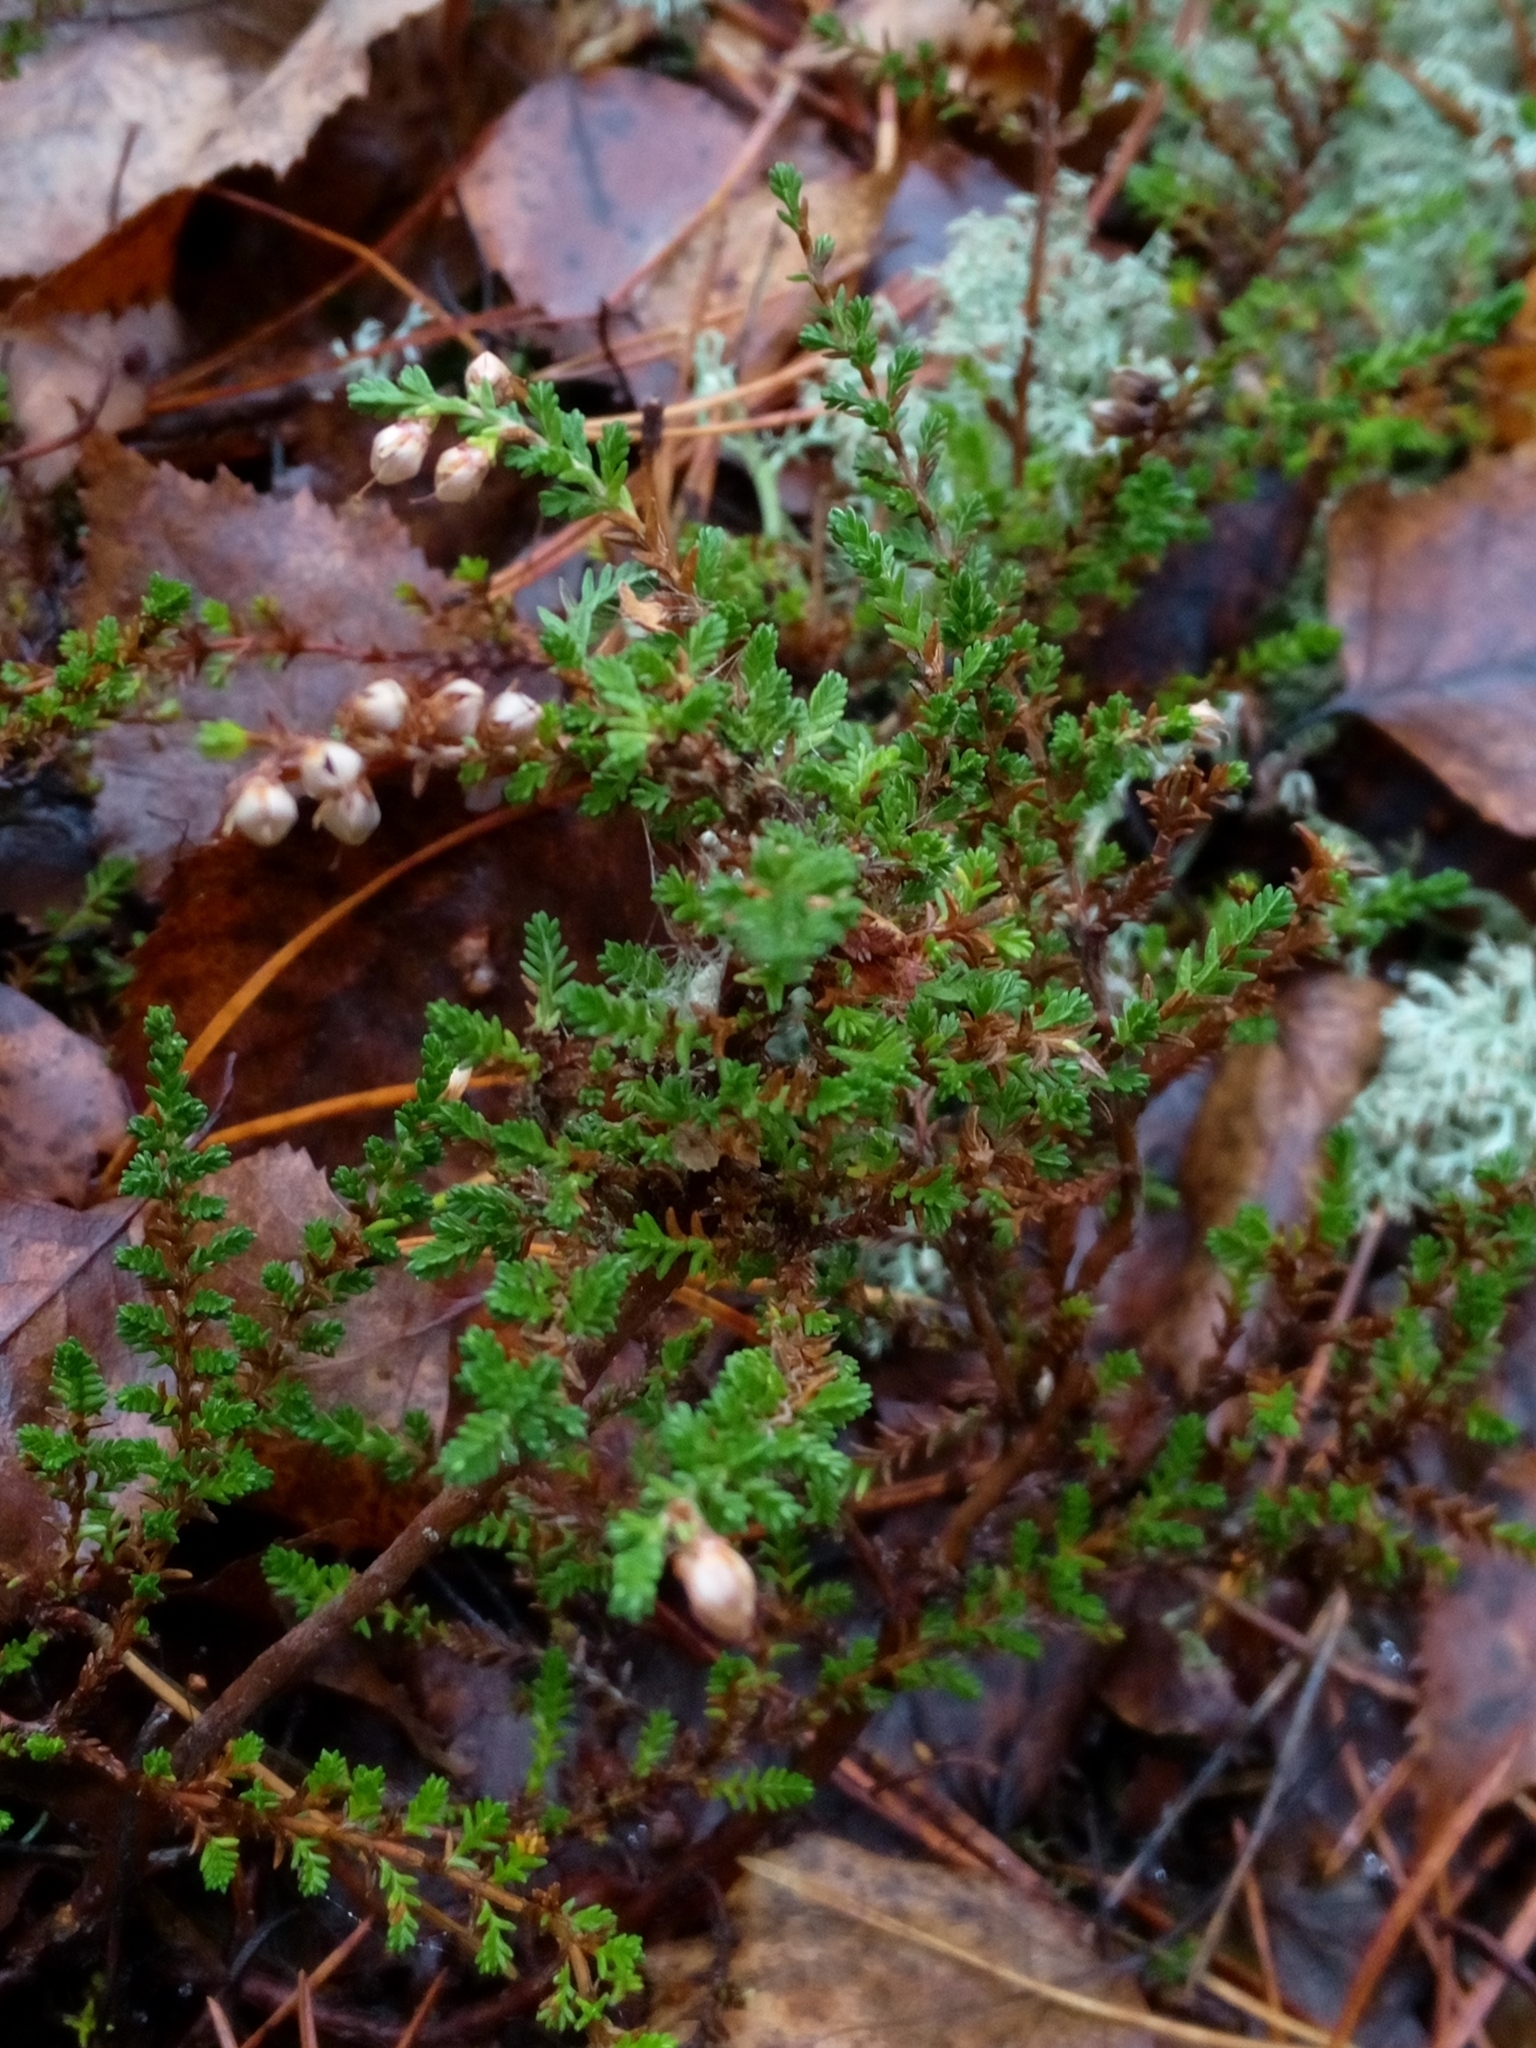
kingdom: Plantae
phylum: Tracheophyta
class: Magnoliopsida
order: Ericales
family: Ericaceae
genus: Calluna
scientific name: Calluna vulgaris
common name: Heather
